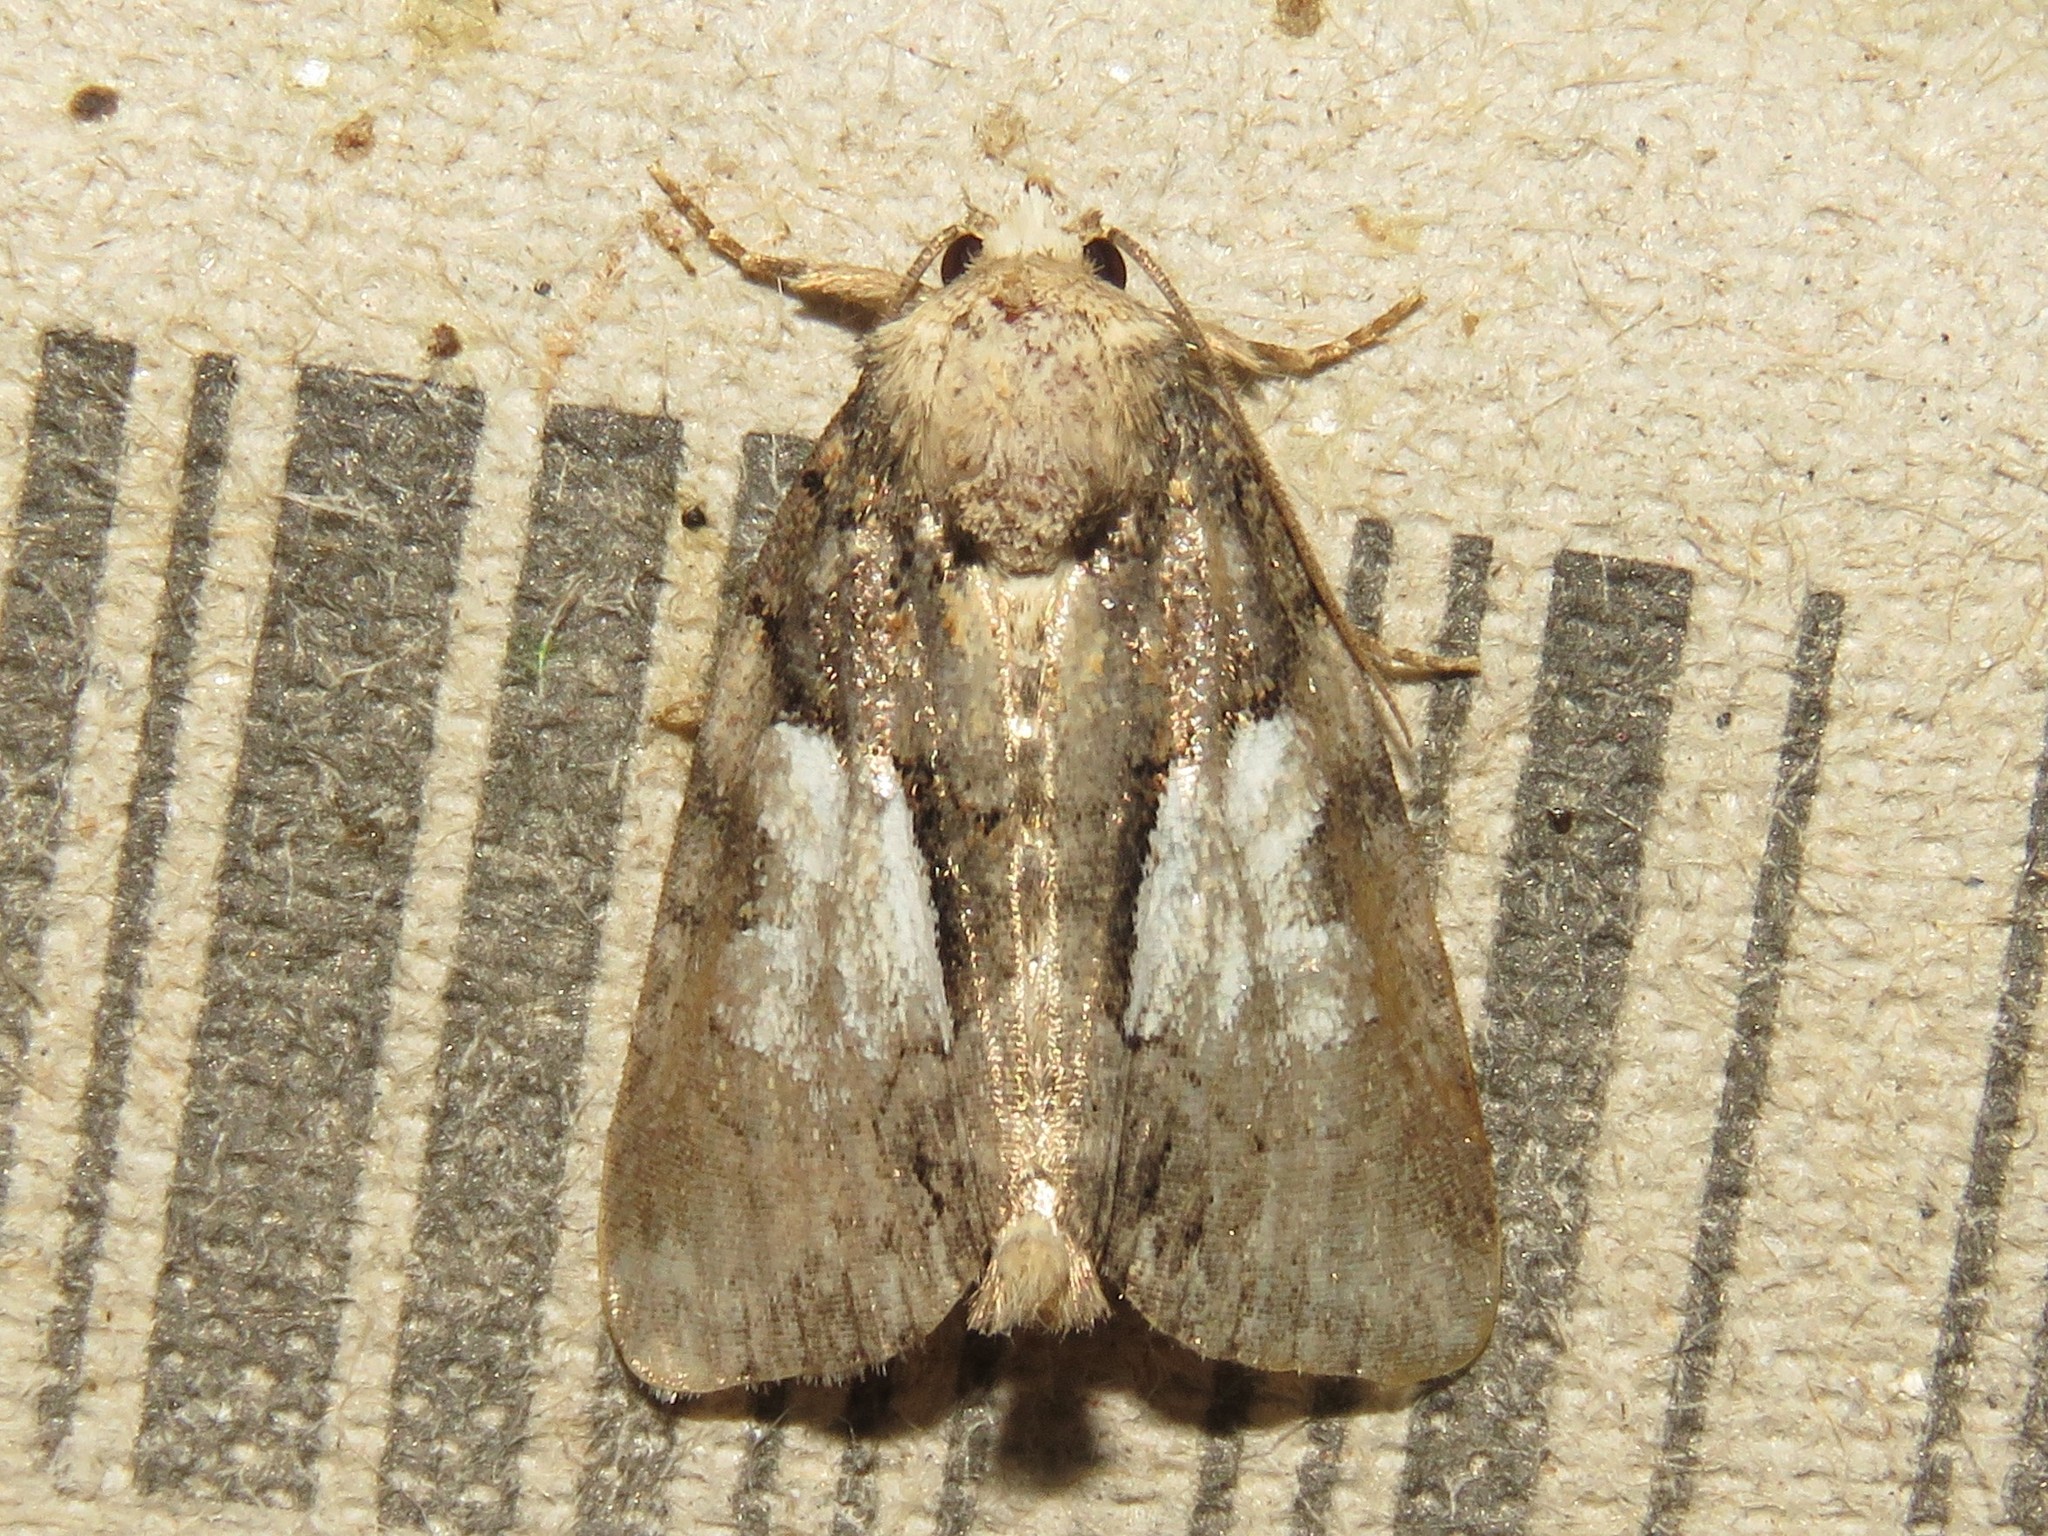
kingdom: Animalia
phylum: Arthropoda
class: Insecta
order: Lepidoptera
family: Noctuidae
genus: Chytonix
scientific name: Chytonix palliatricula
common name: Cloaked marvel
